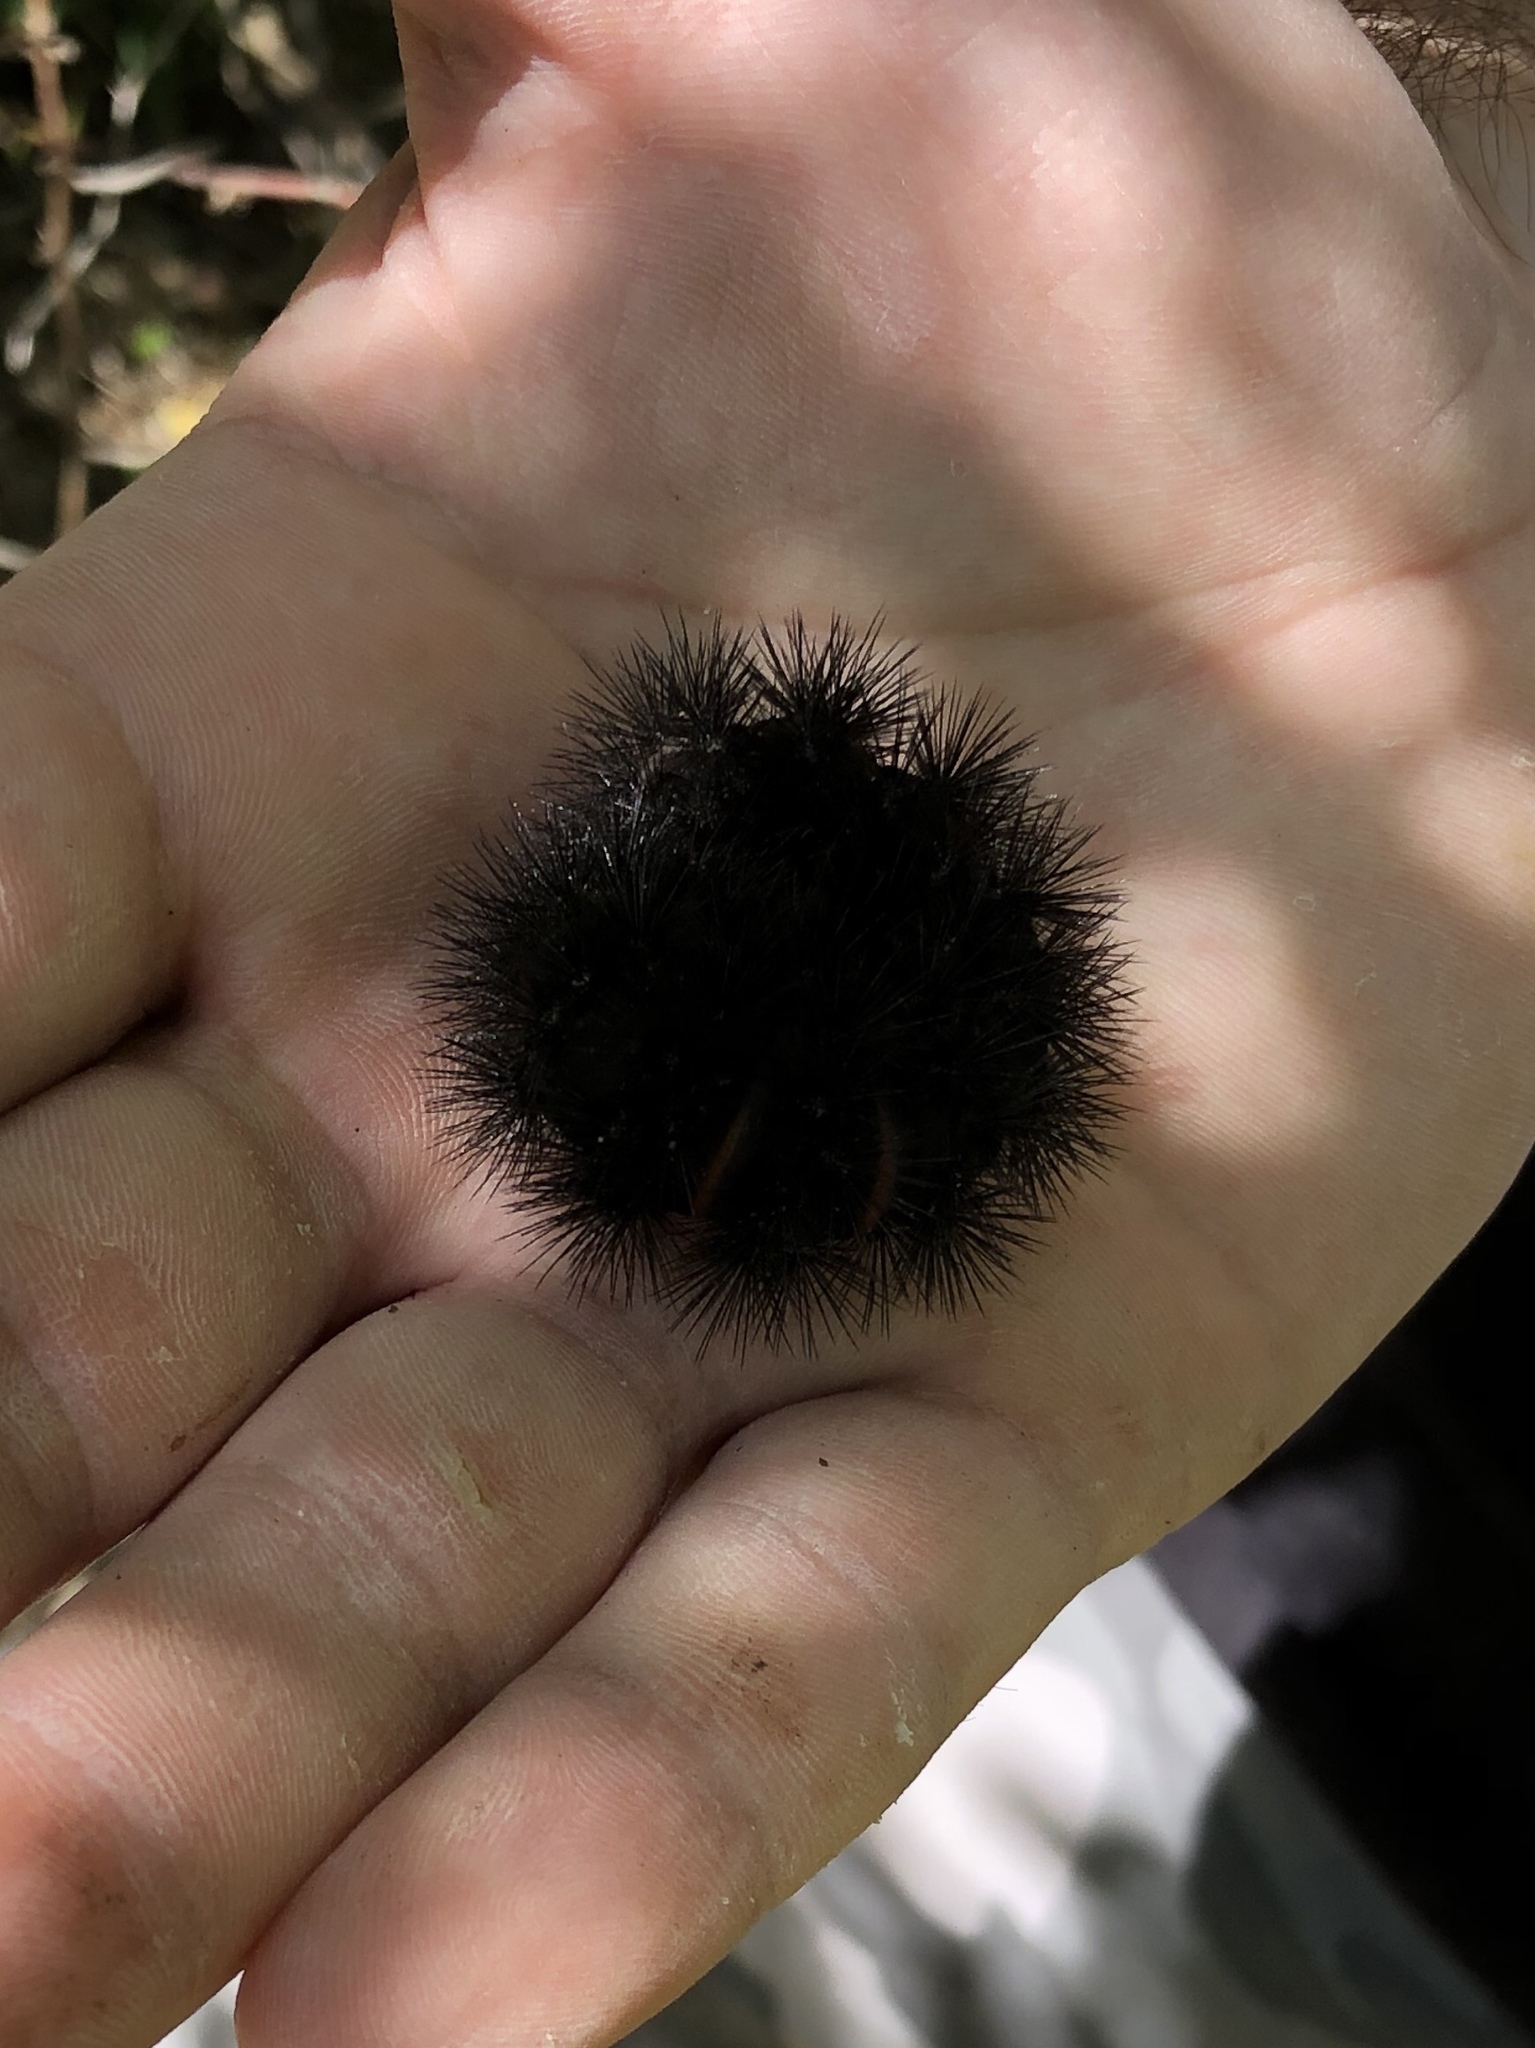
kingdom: Animalia
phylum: Arthropoda
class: Insecta
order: Lepidoptera
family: Erebidae
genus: Hypercompe
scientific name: Hypercompe scribonia
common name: Giant leopard moth
